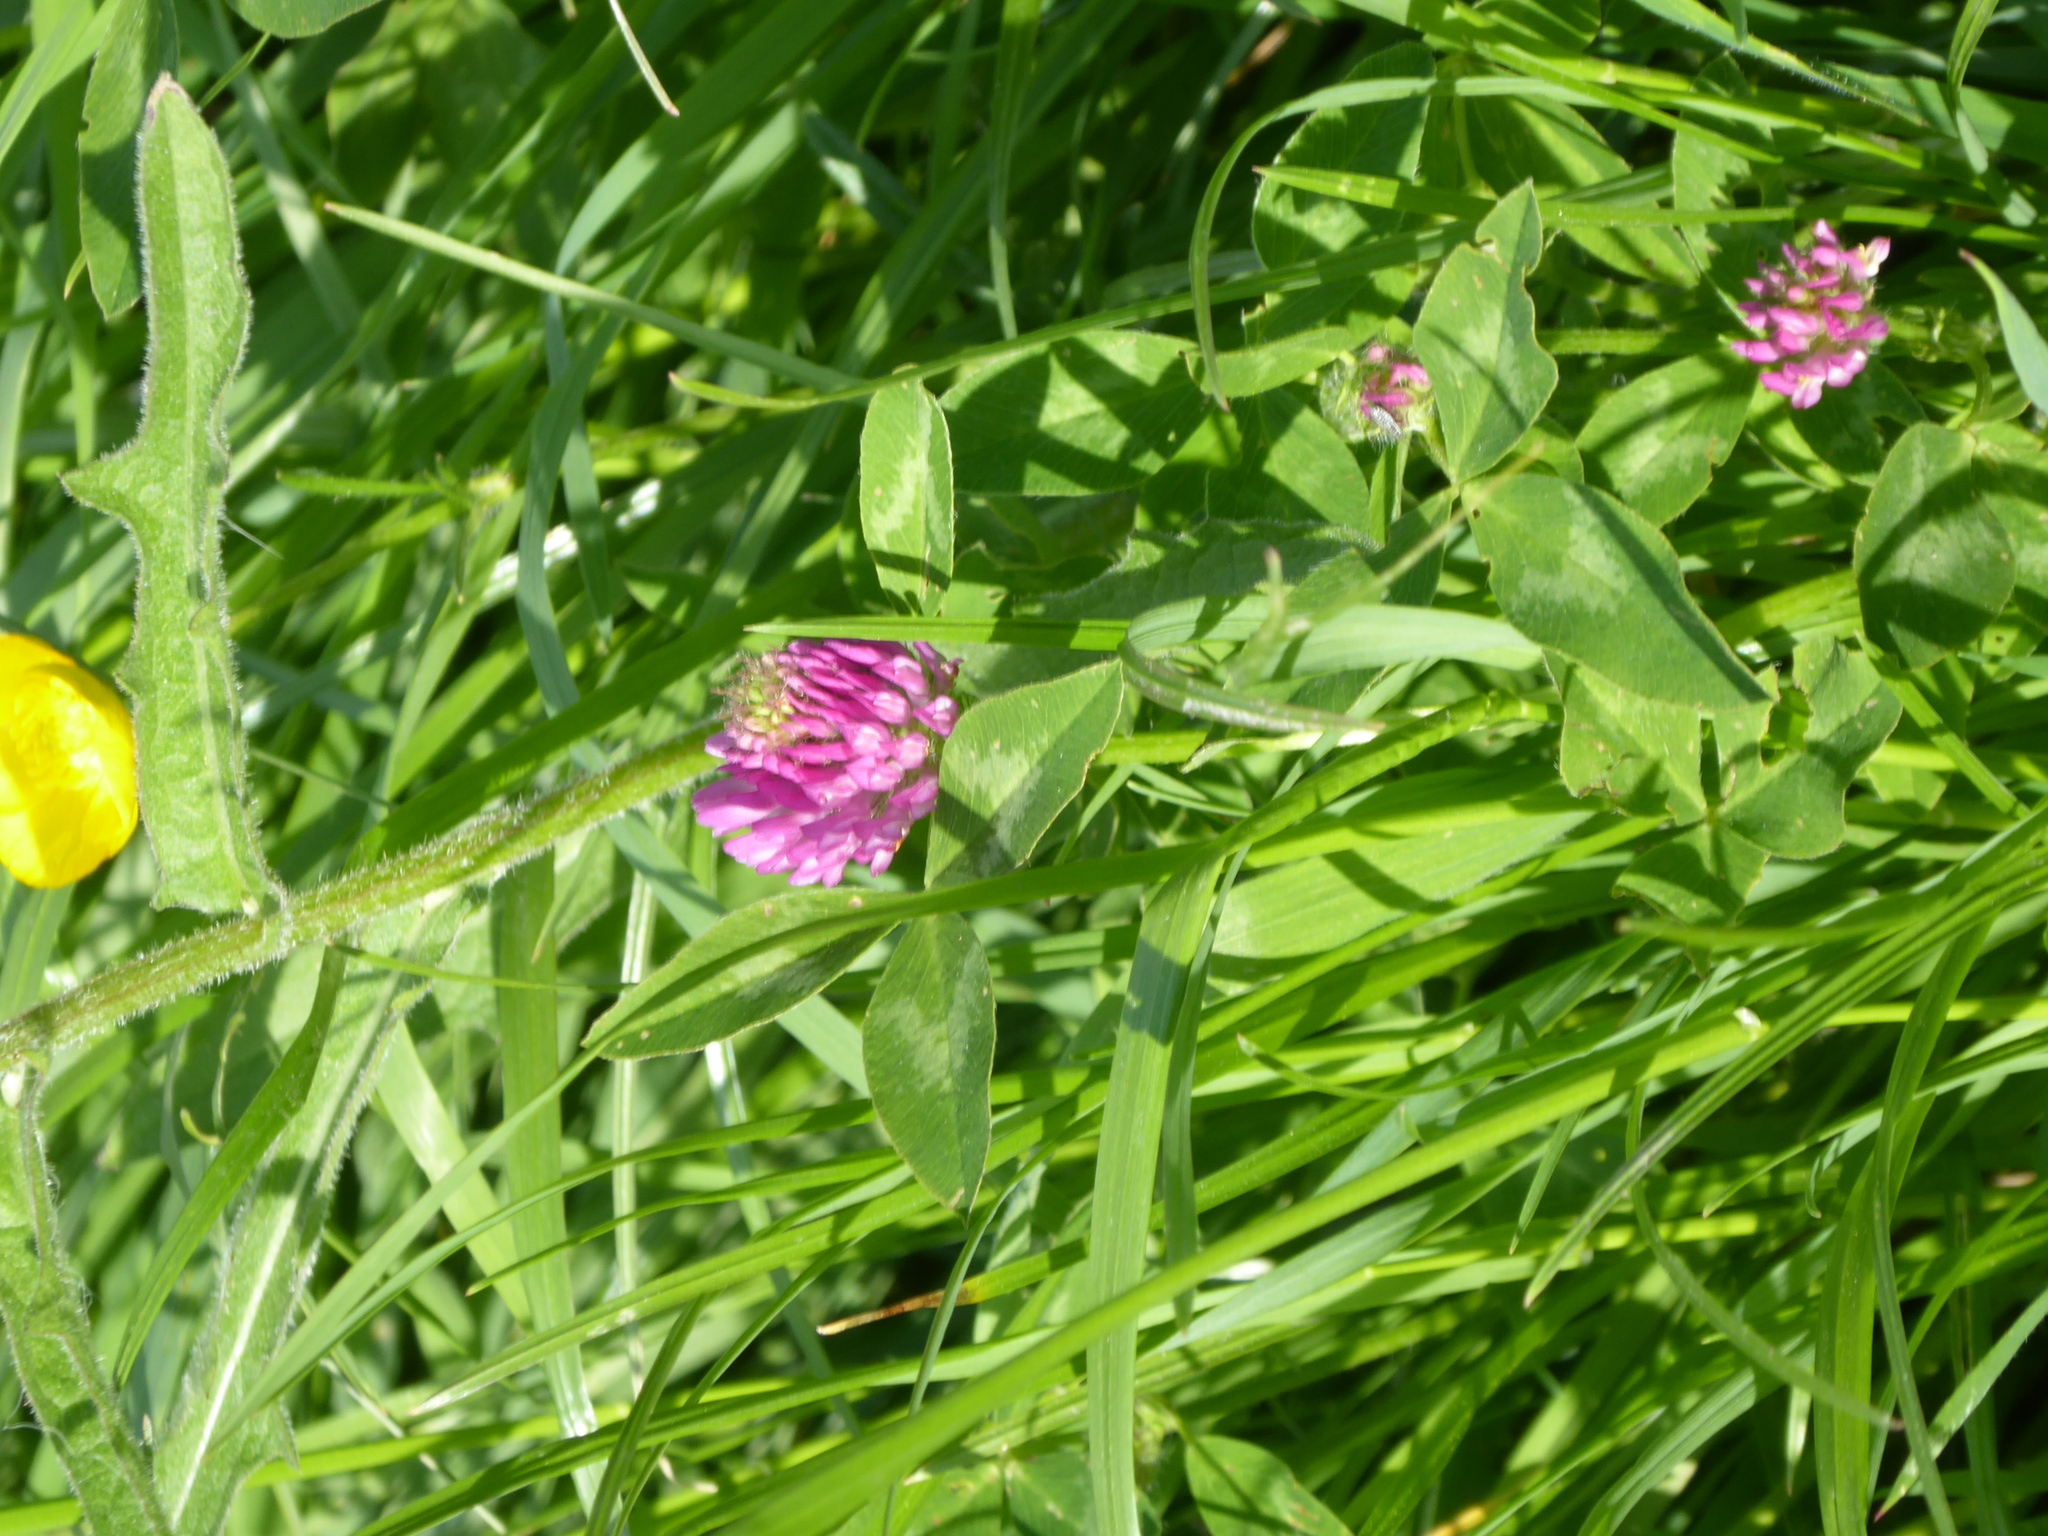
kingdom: Plantae
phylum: Tracheophyta
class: Magnoliopsida
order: Fabales
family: Fabaceae
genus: Trifolium
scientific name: Trifolium pratense
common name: Red clover
